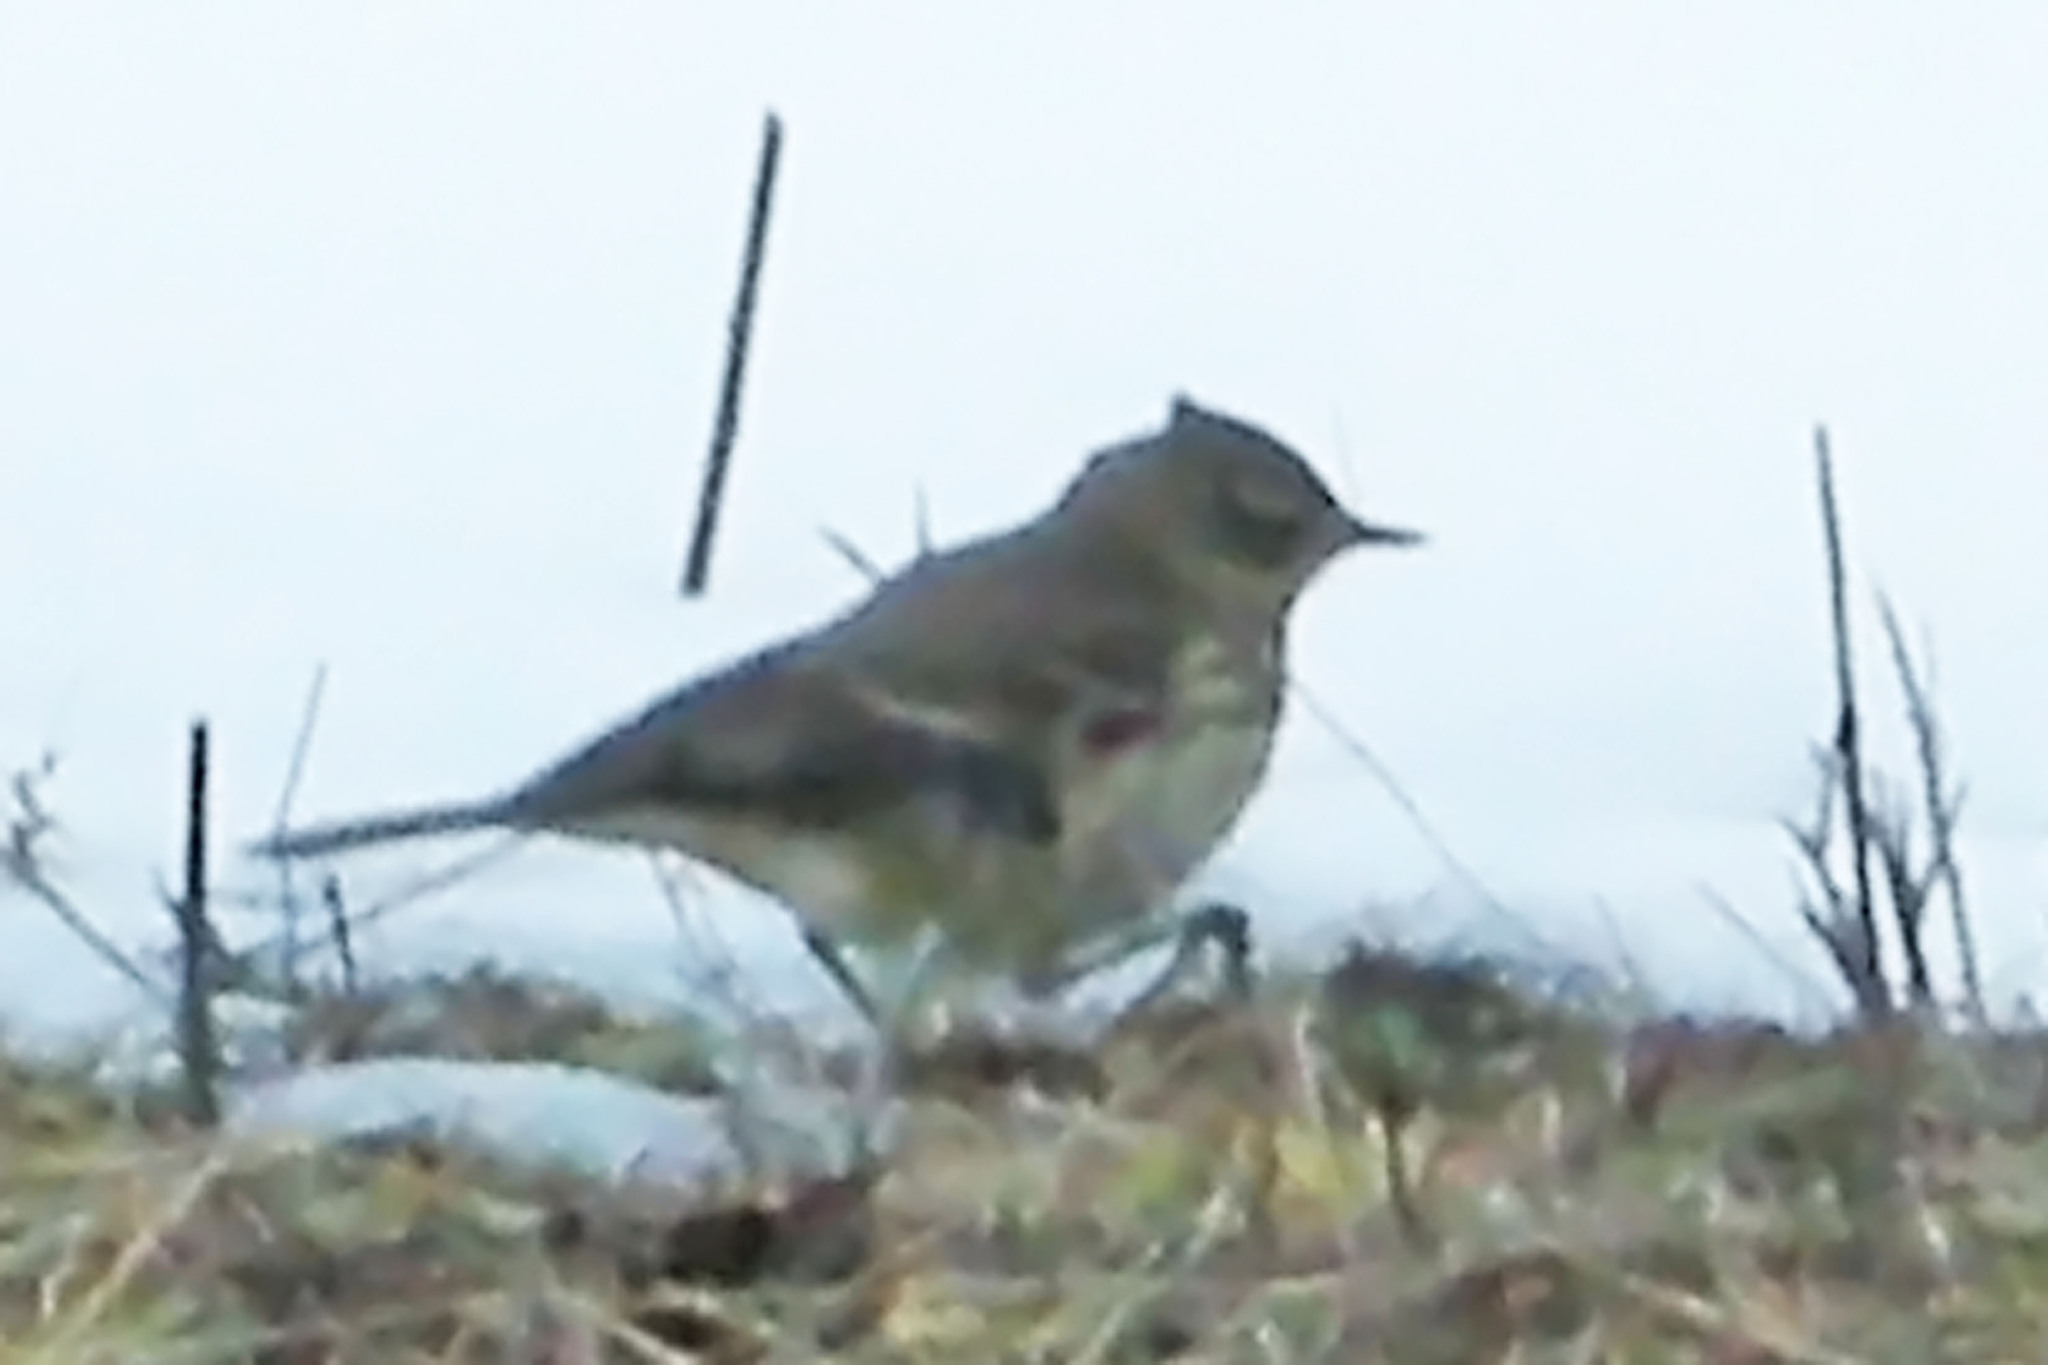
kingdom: Animalia
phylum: Chordata
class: Aves
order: Passeriformes
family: Motacillidae
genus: Anthus
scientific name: Anthus rubescens
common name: Buff-bellied pipit
